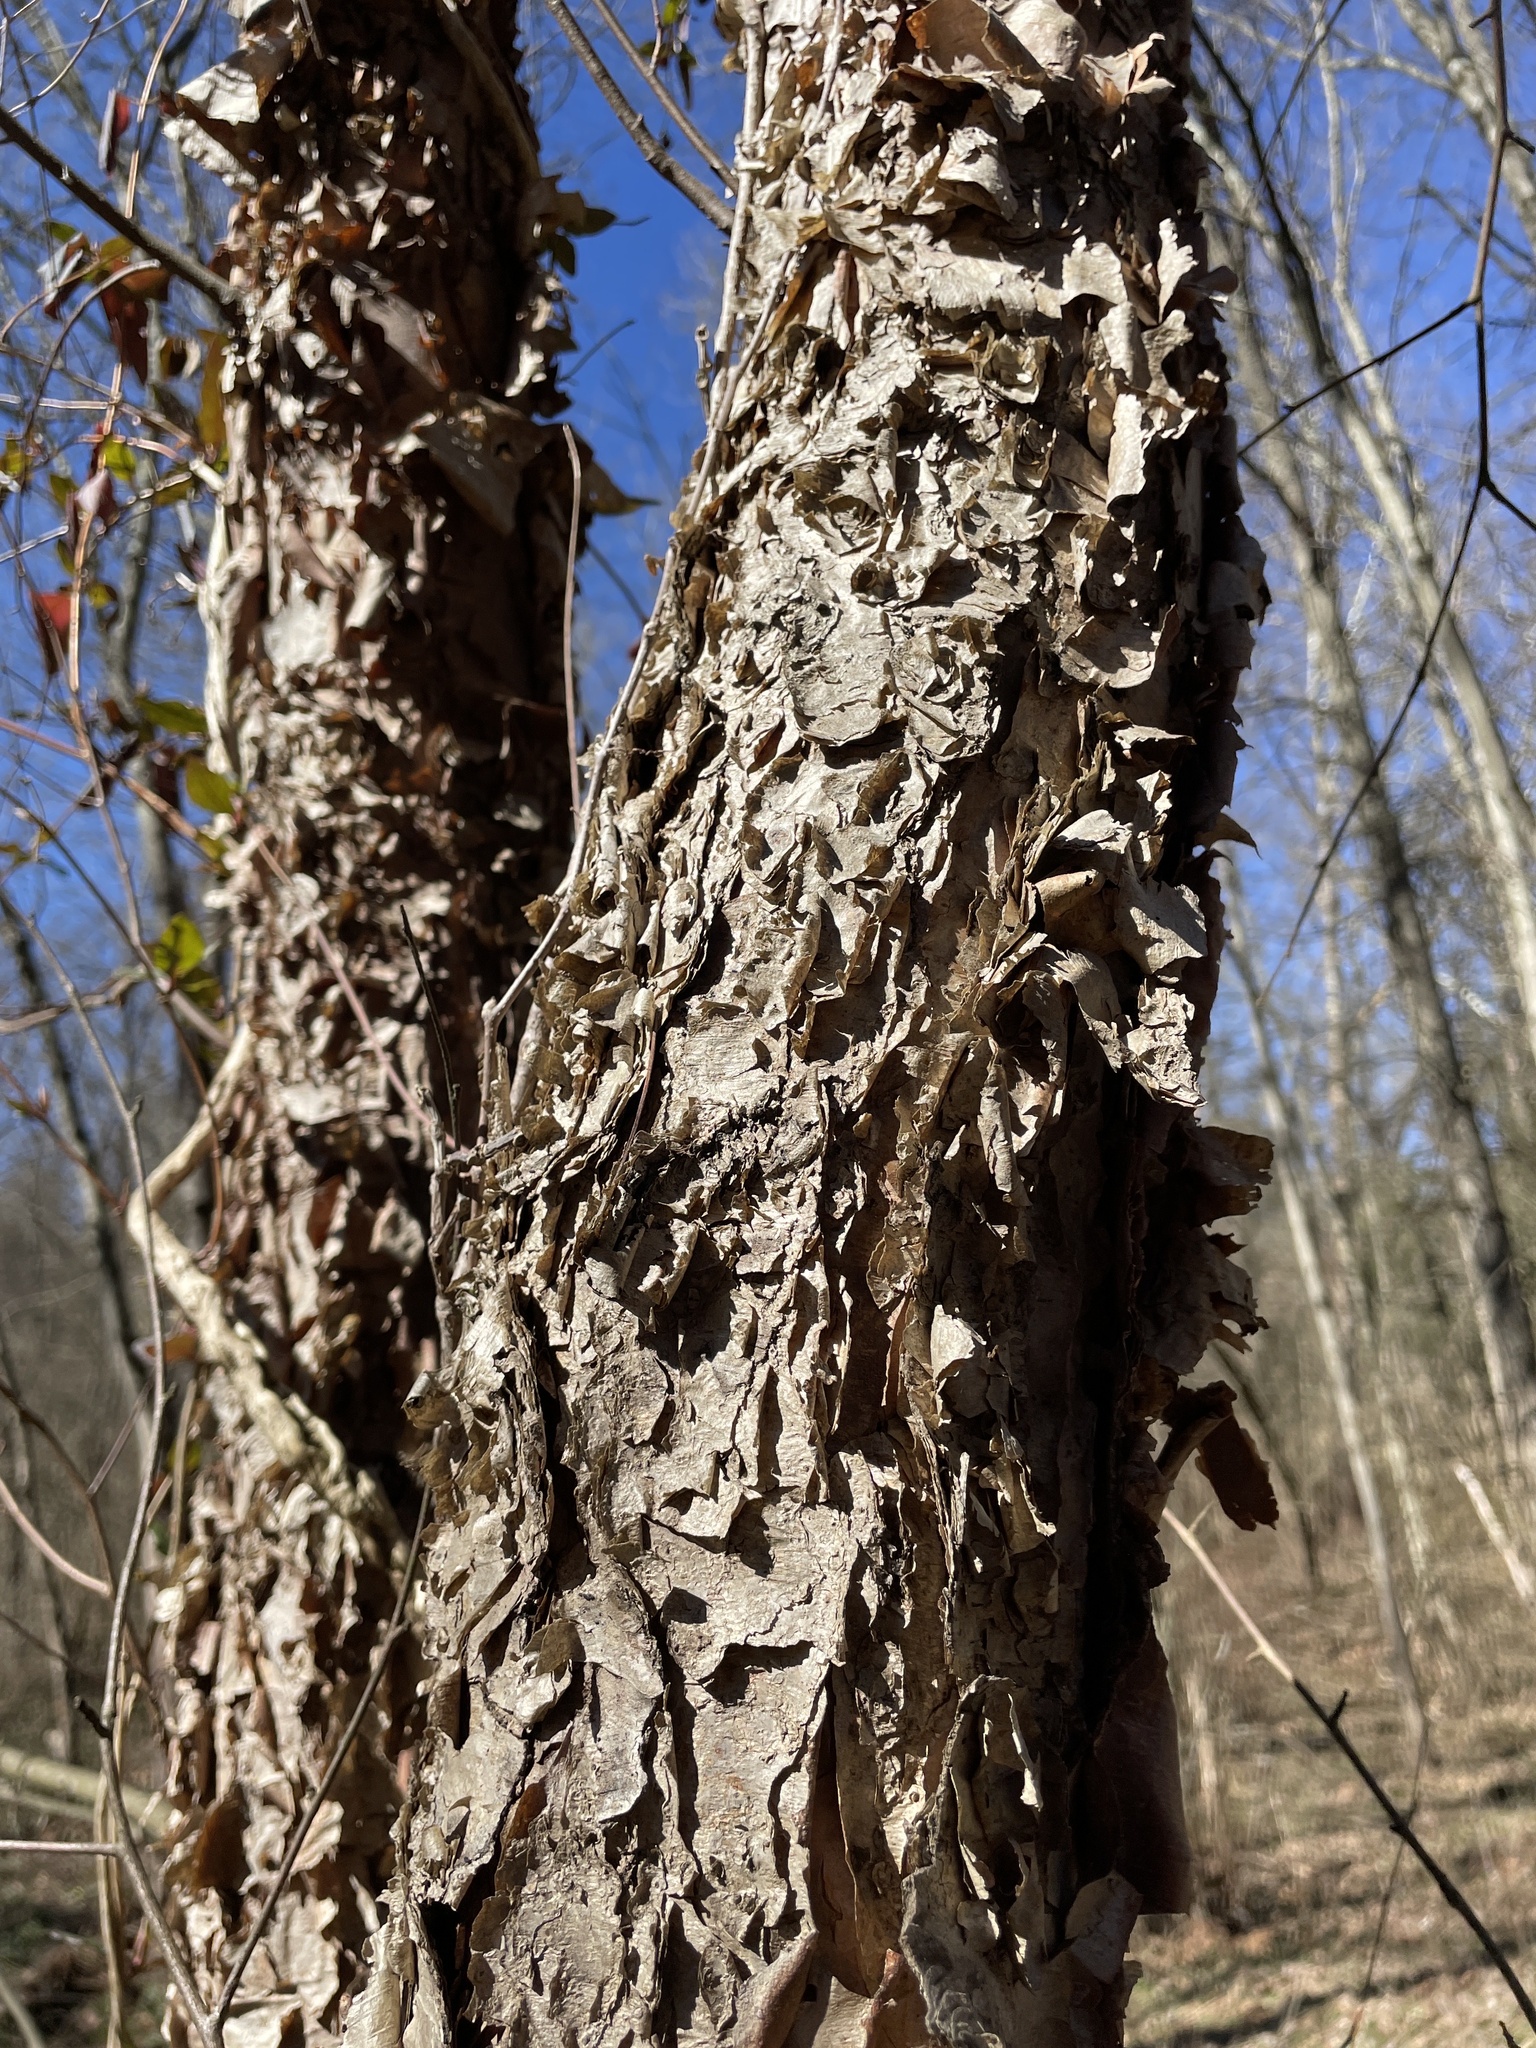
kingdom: Plantae
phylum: Tracheophyta
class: Magnoliopsida
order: Fagales
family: Betulaceae
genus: Betula
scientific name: Betula nigra
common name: Black birch
